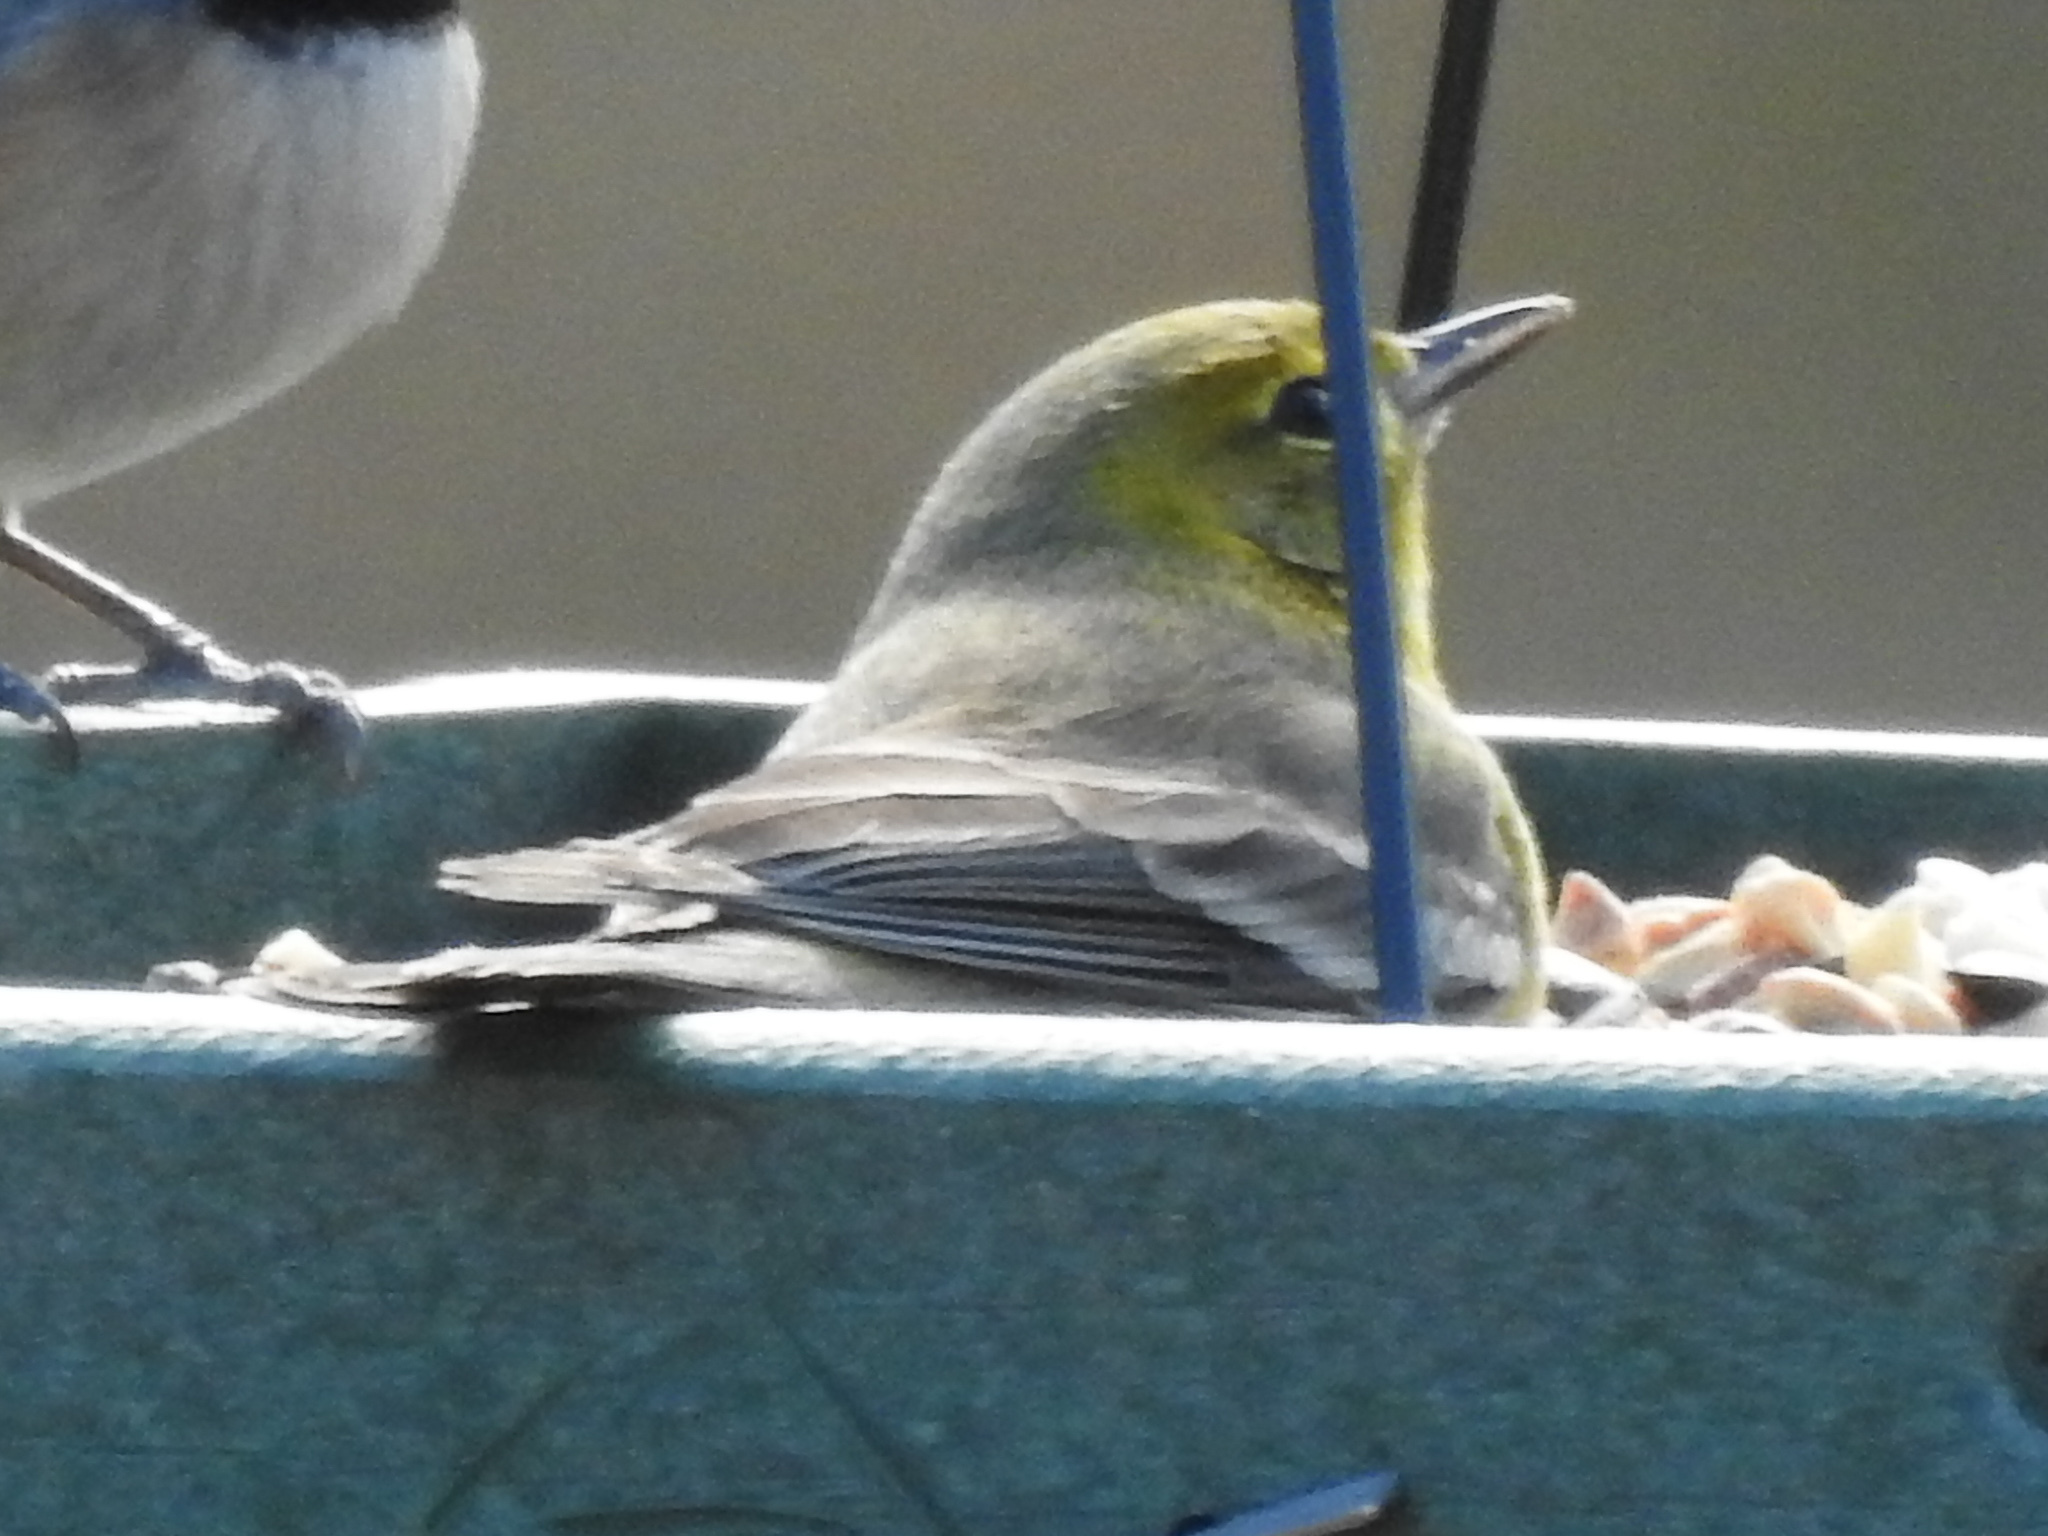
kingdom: Animalia
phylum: Chordata
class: Aves
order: Passeriformes
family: Parulidae
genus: Setophaga
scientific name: Setophaga pinus
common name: Pine warbler
